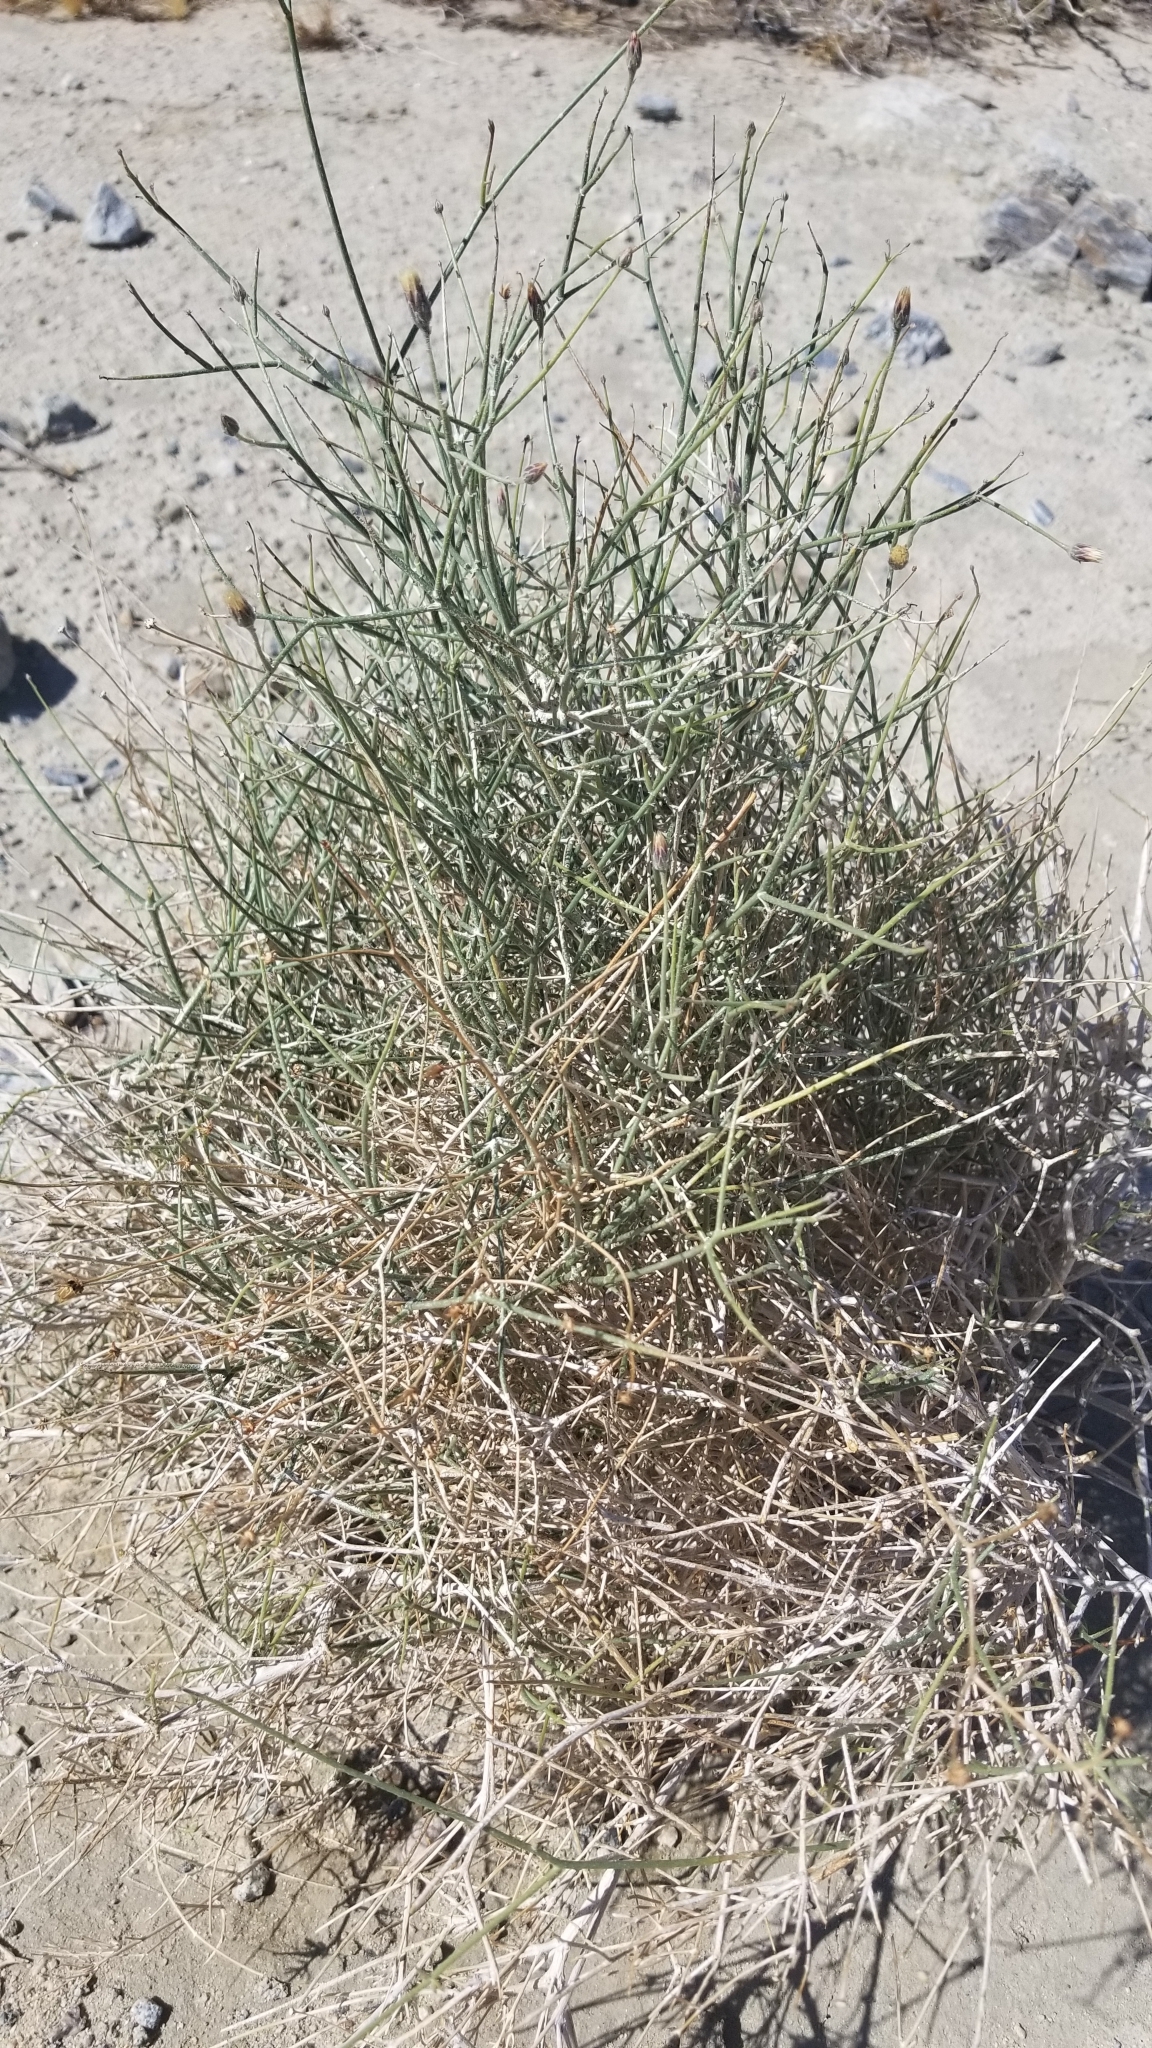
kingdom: Plantae
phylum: Tracheophyta
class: Magnoliopsida
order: Asterales
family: Asteraceae
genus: Bebbia
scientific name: Bebbia juncea
